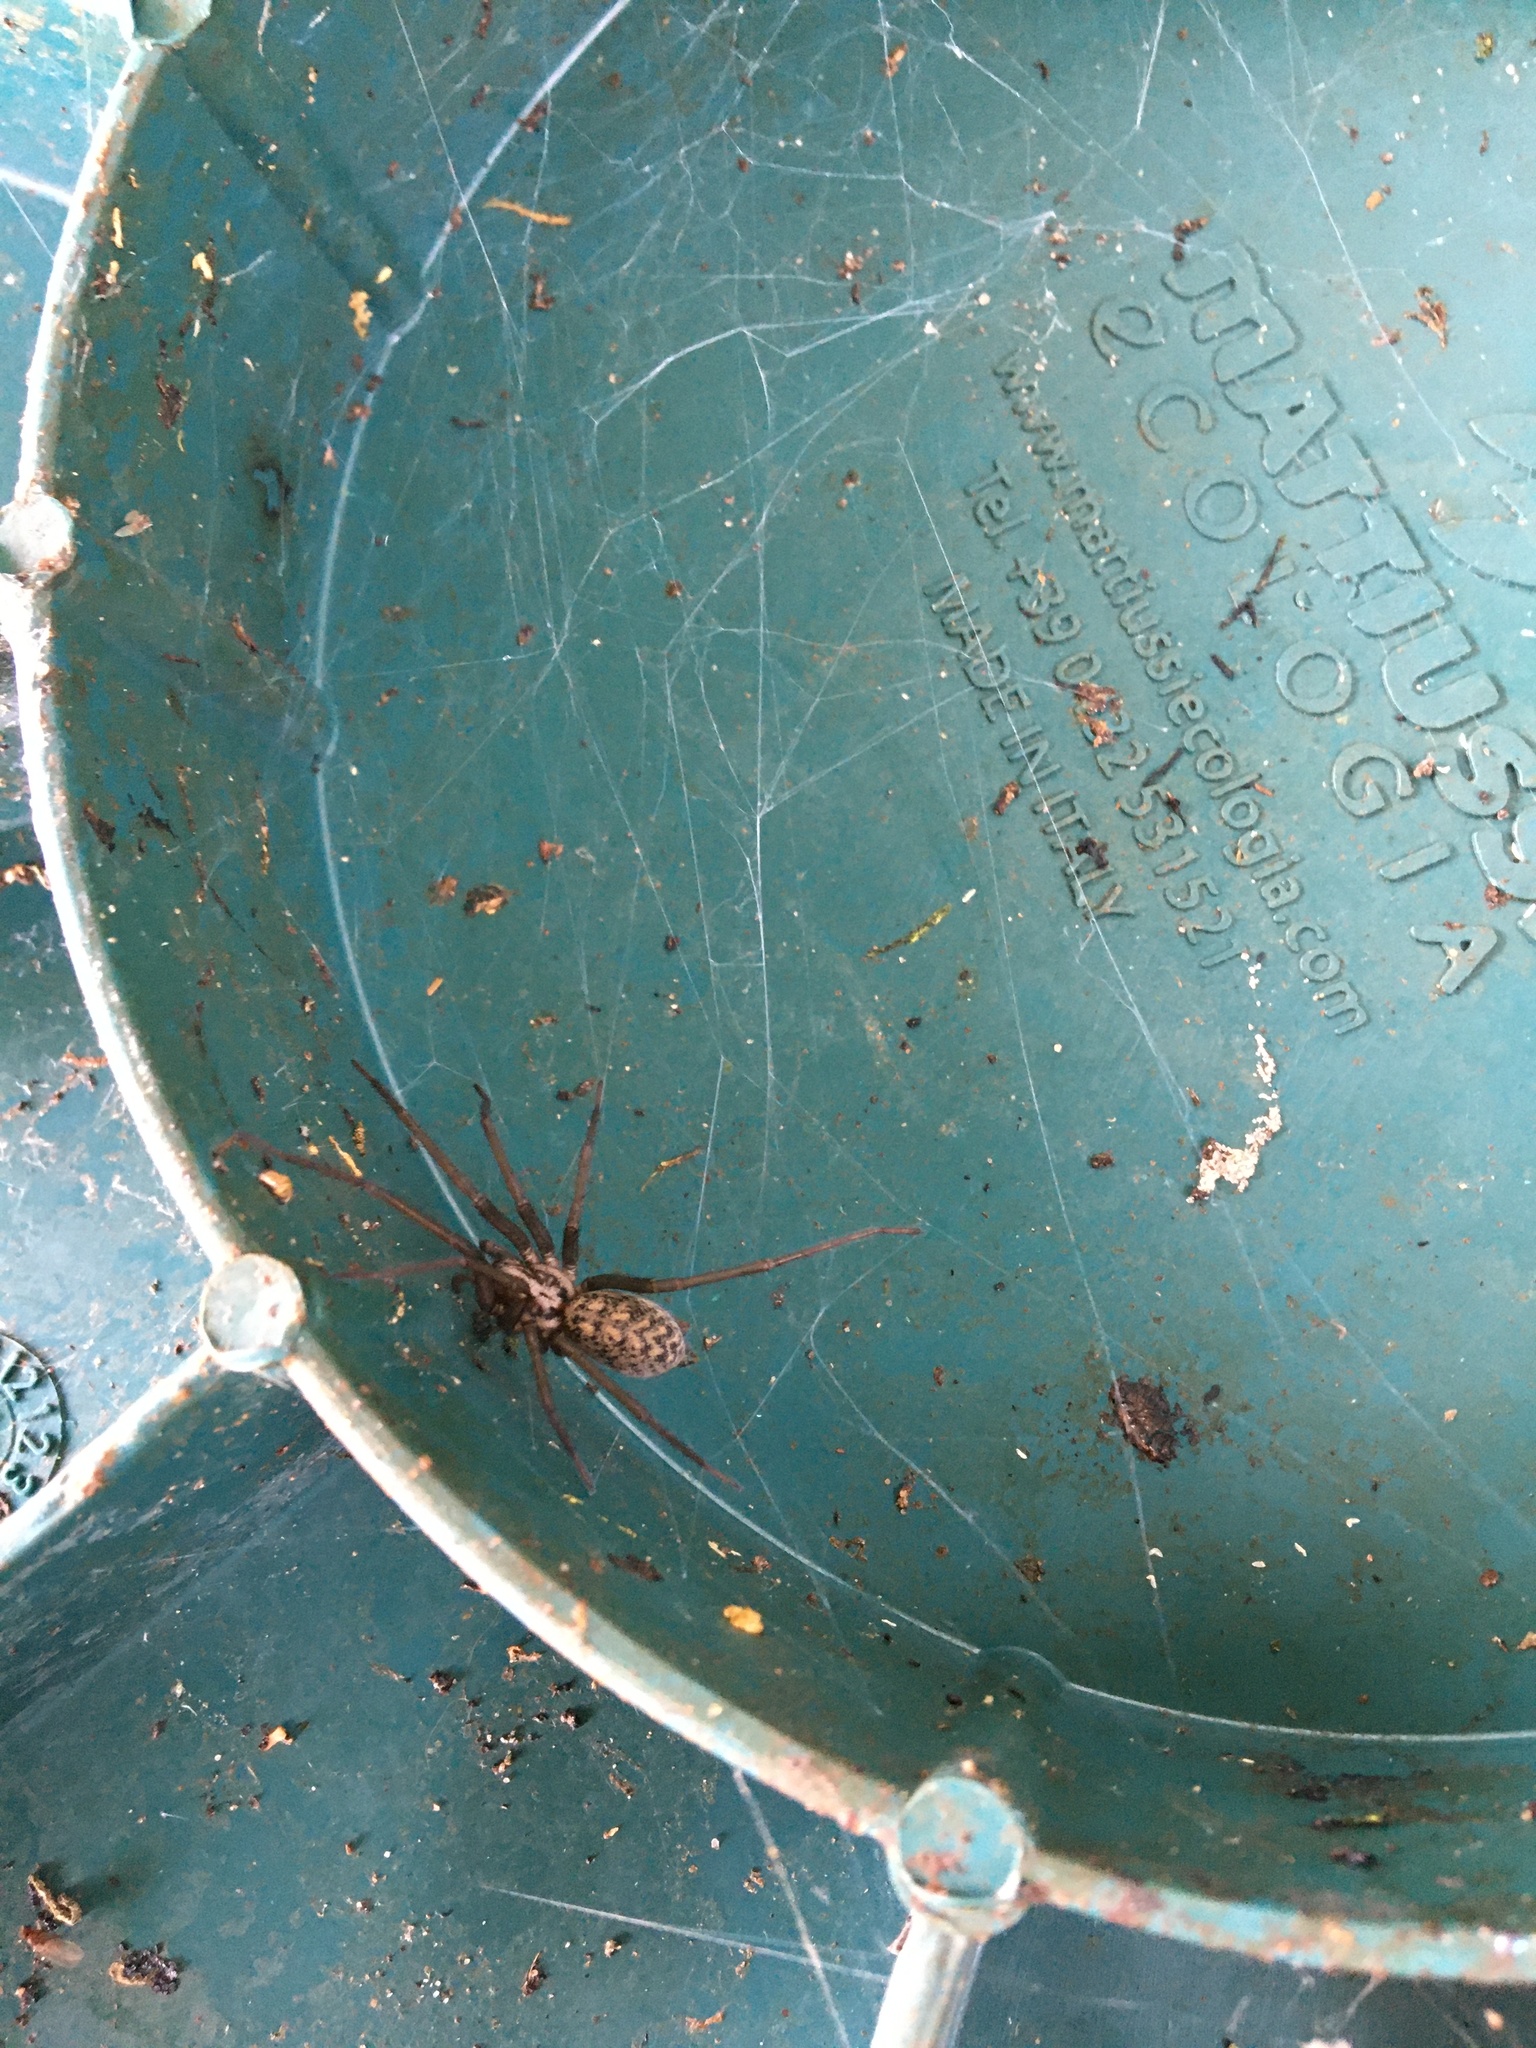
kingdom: Animalia
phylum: Arthropoda
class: Arachnida
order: Araneae
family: Agelenidae
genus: Eratigena
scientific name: Eratigena atrica
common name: Giant house spider
